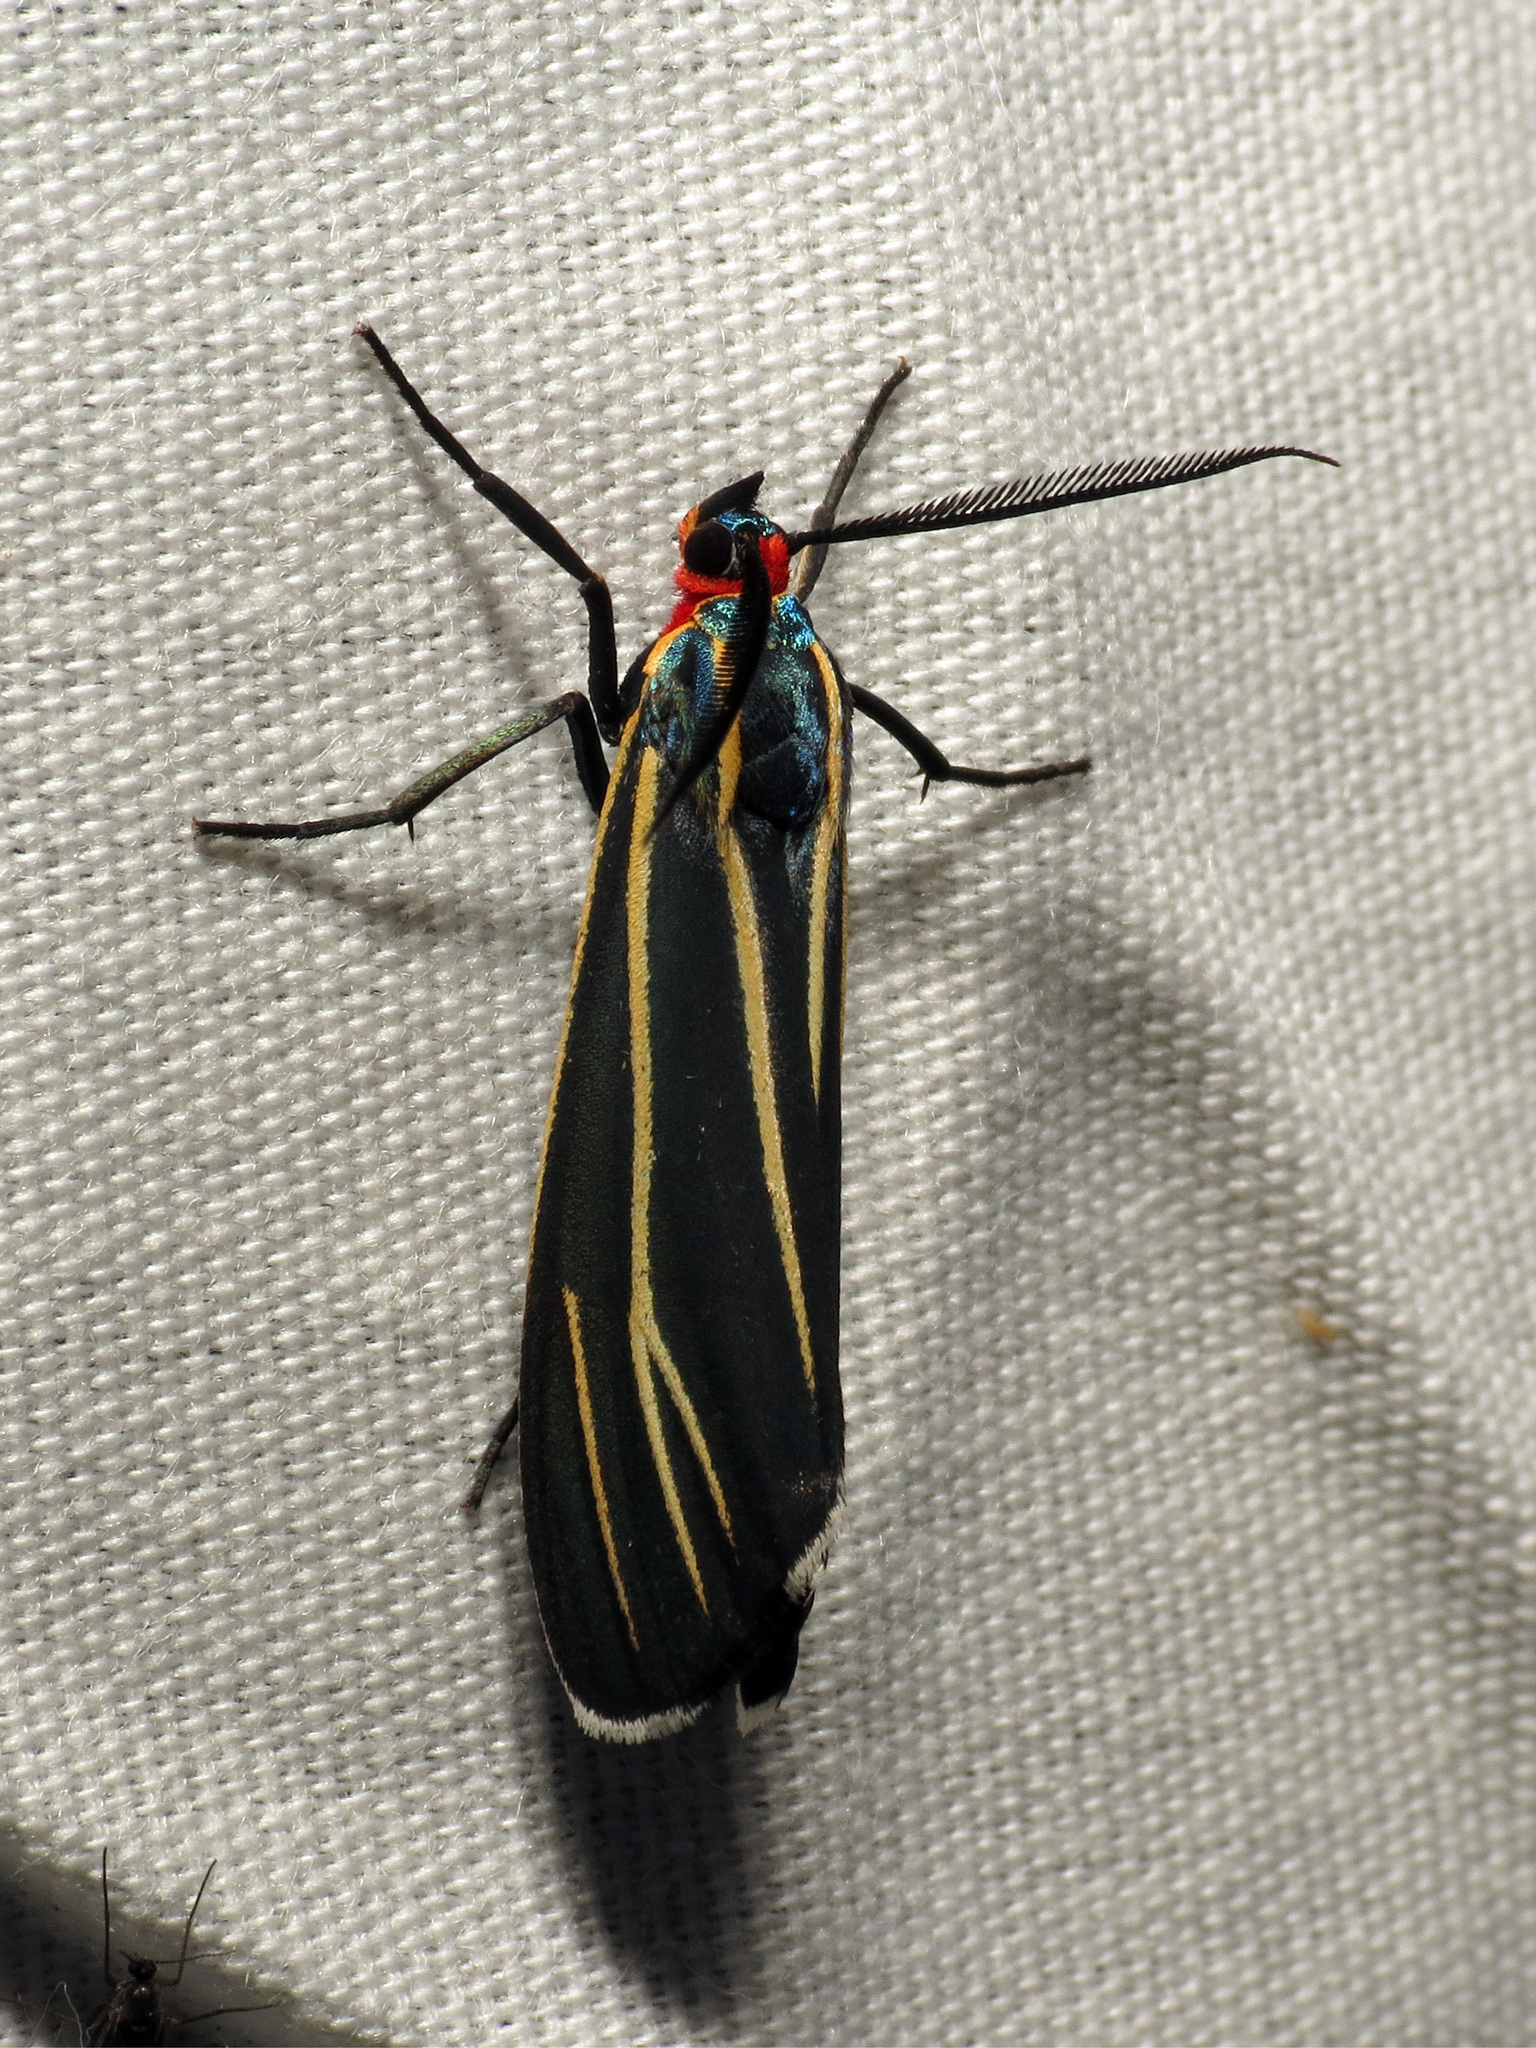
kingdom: Animalia
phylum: Arthropoda
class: Insecta
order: Lepidoptera
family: Erebidae
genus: Ctenucha
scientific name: Ctenucha venosa
